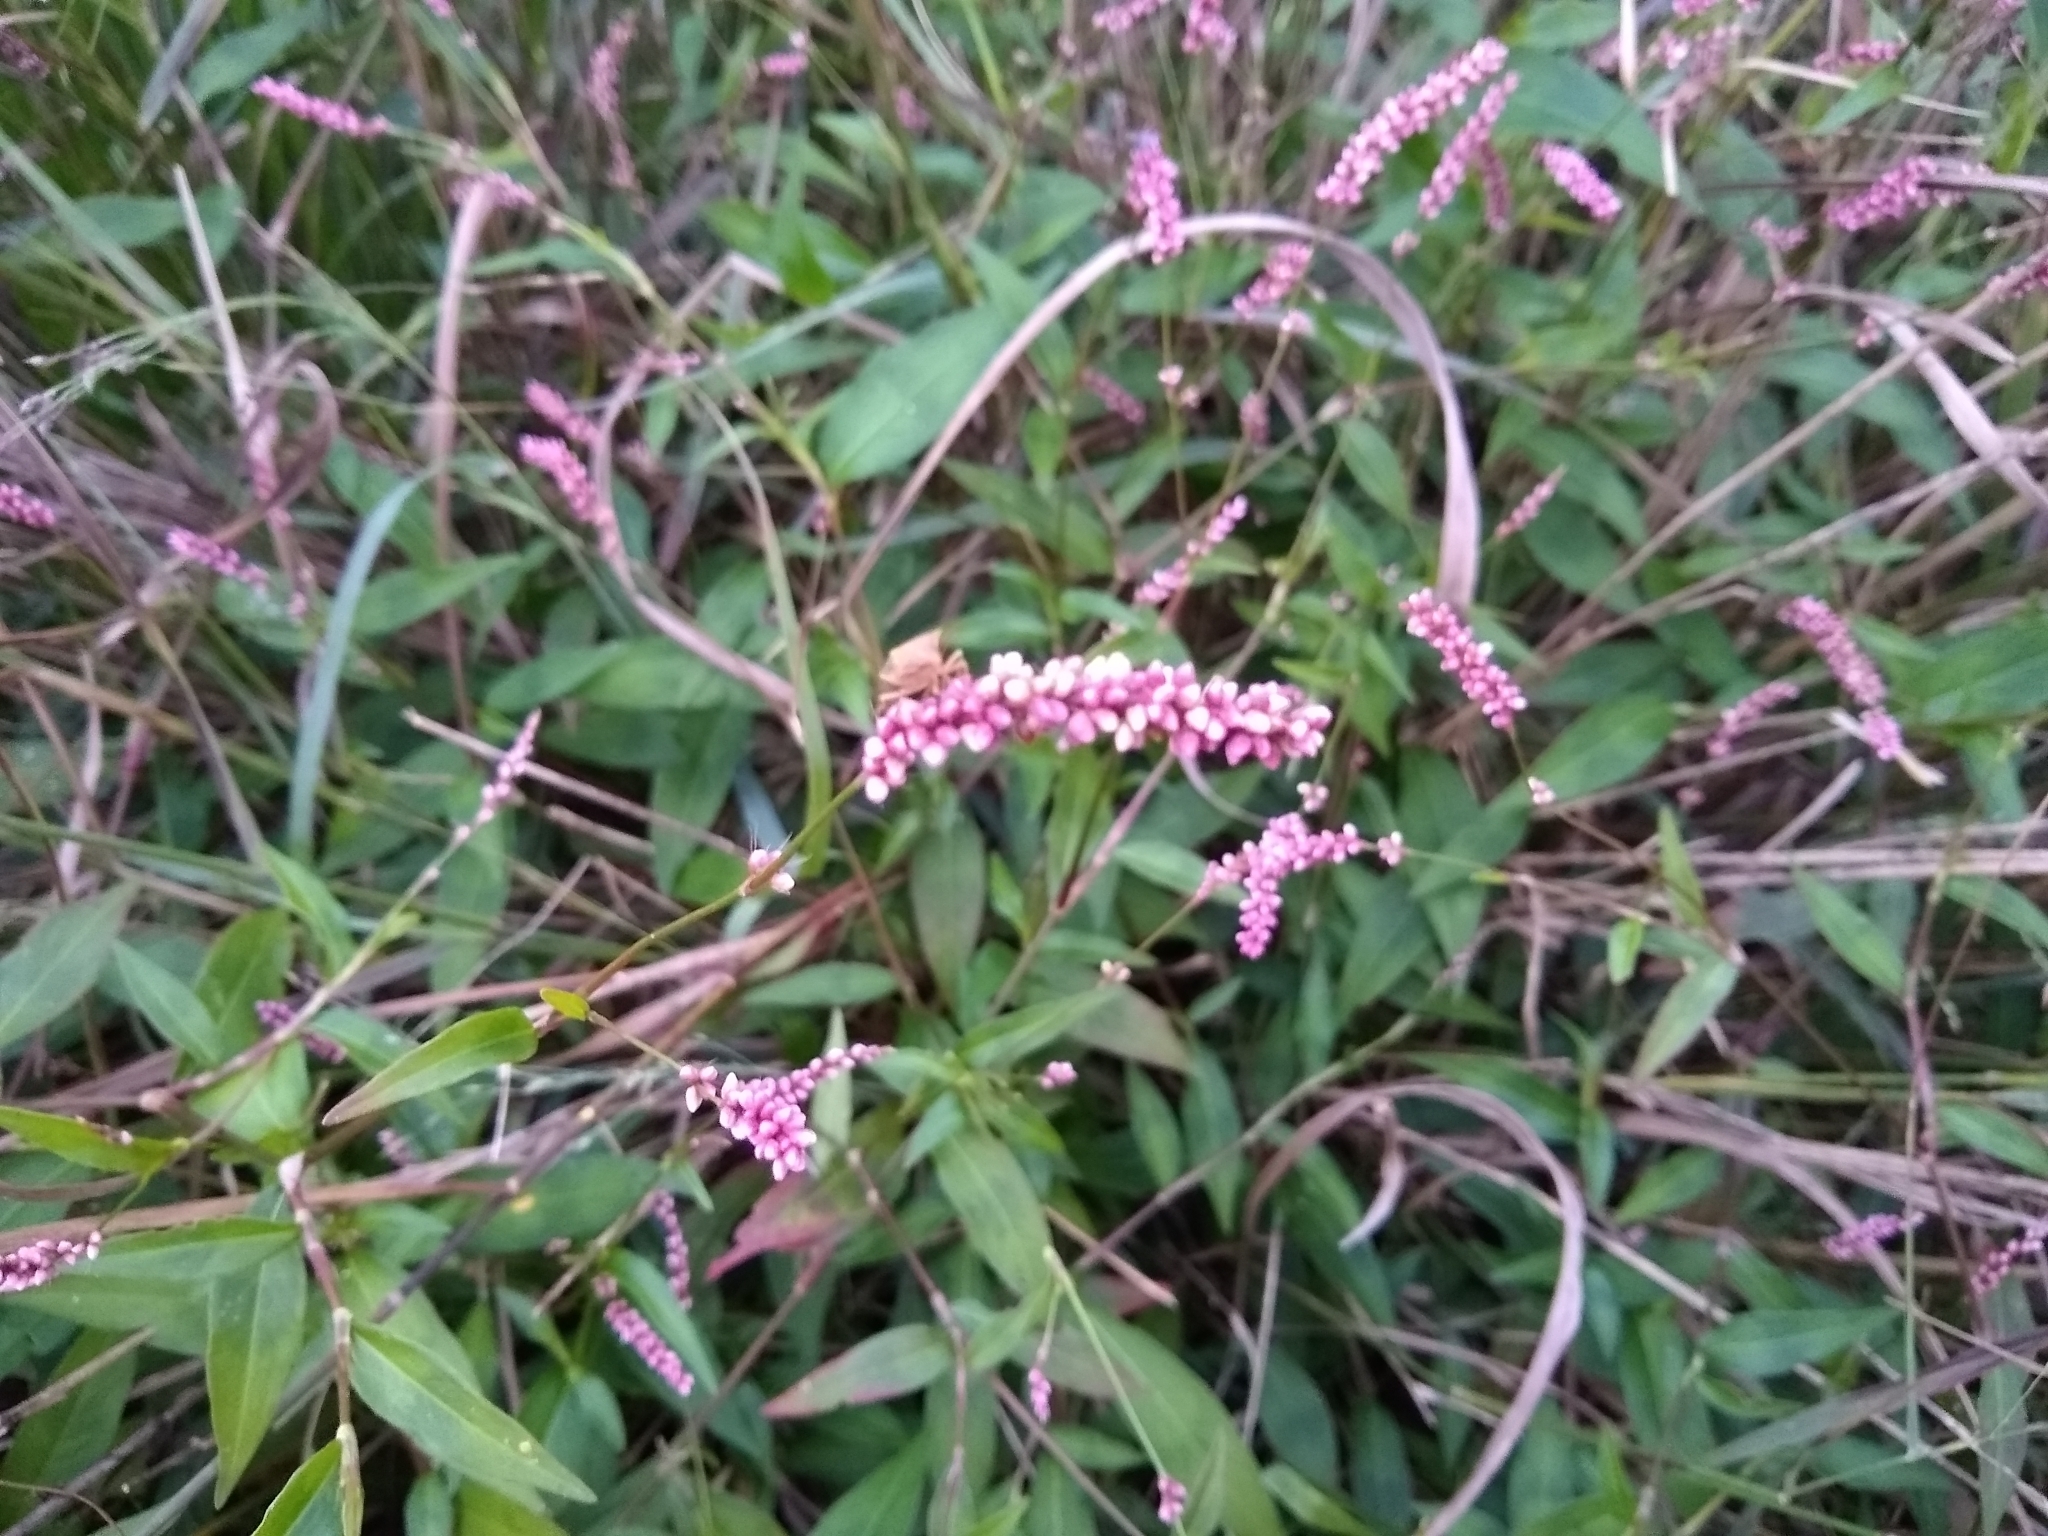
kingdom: Plantae
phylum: Tracheophyta
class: Magnoliopsida
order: Caryophyllales
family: Polygonaceae
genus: Persicaria
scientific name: Persicaria longiseta
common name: Bristly lady's-thumb
